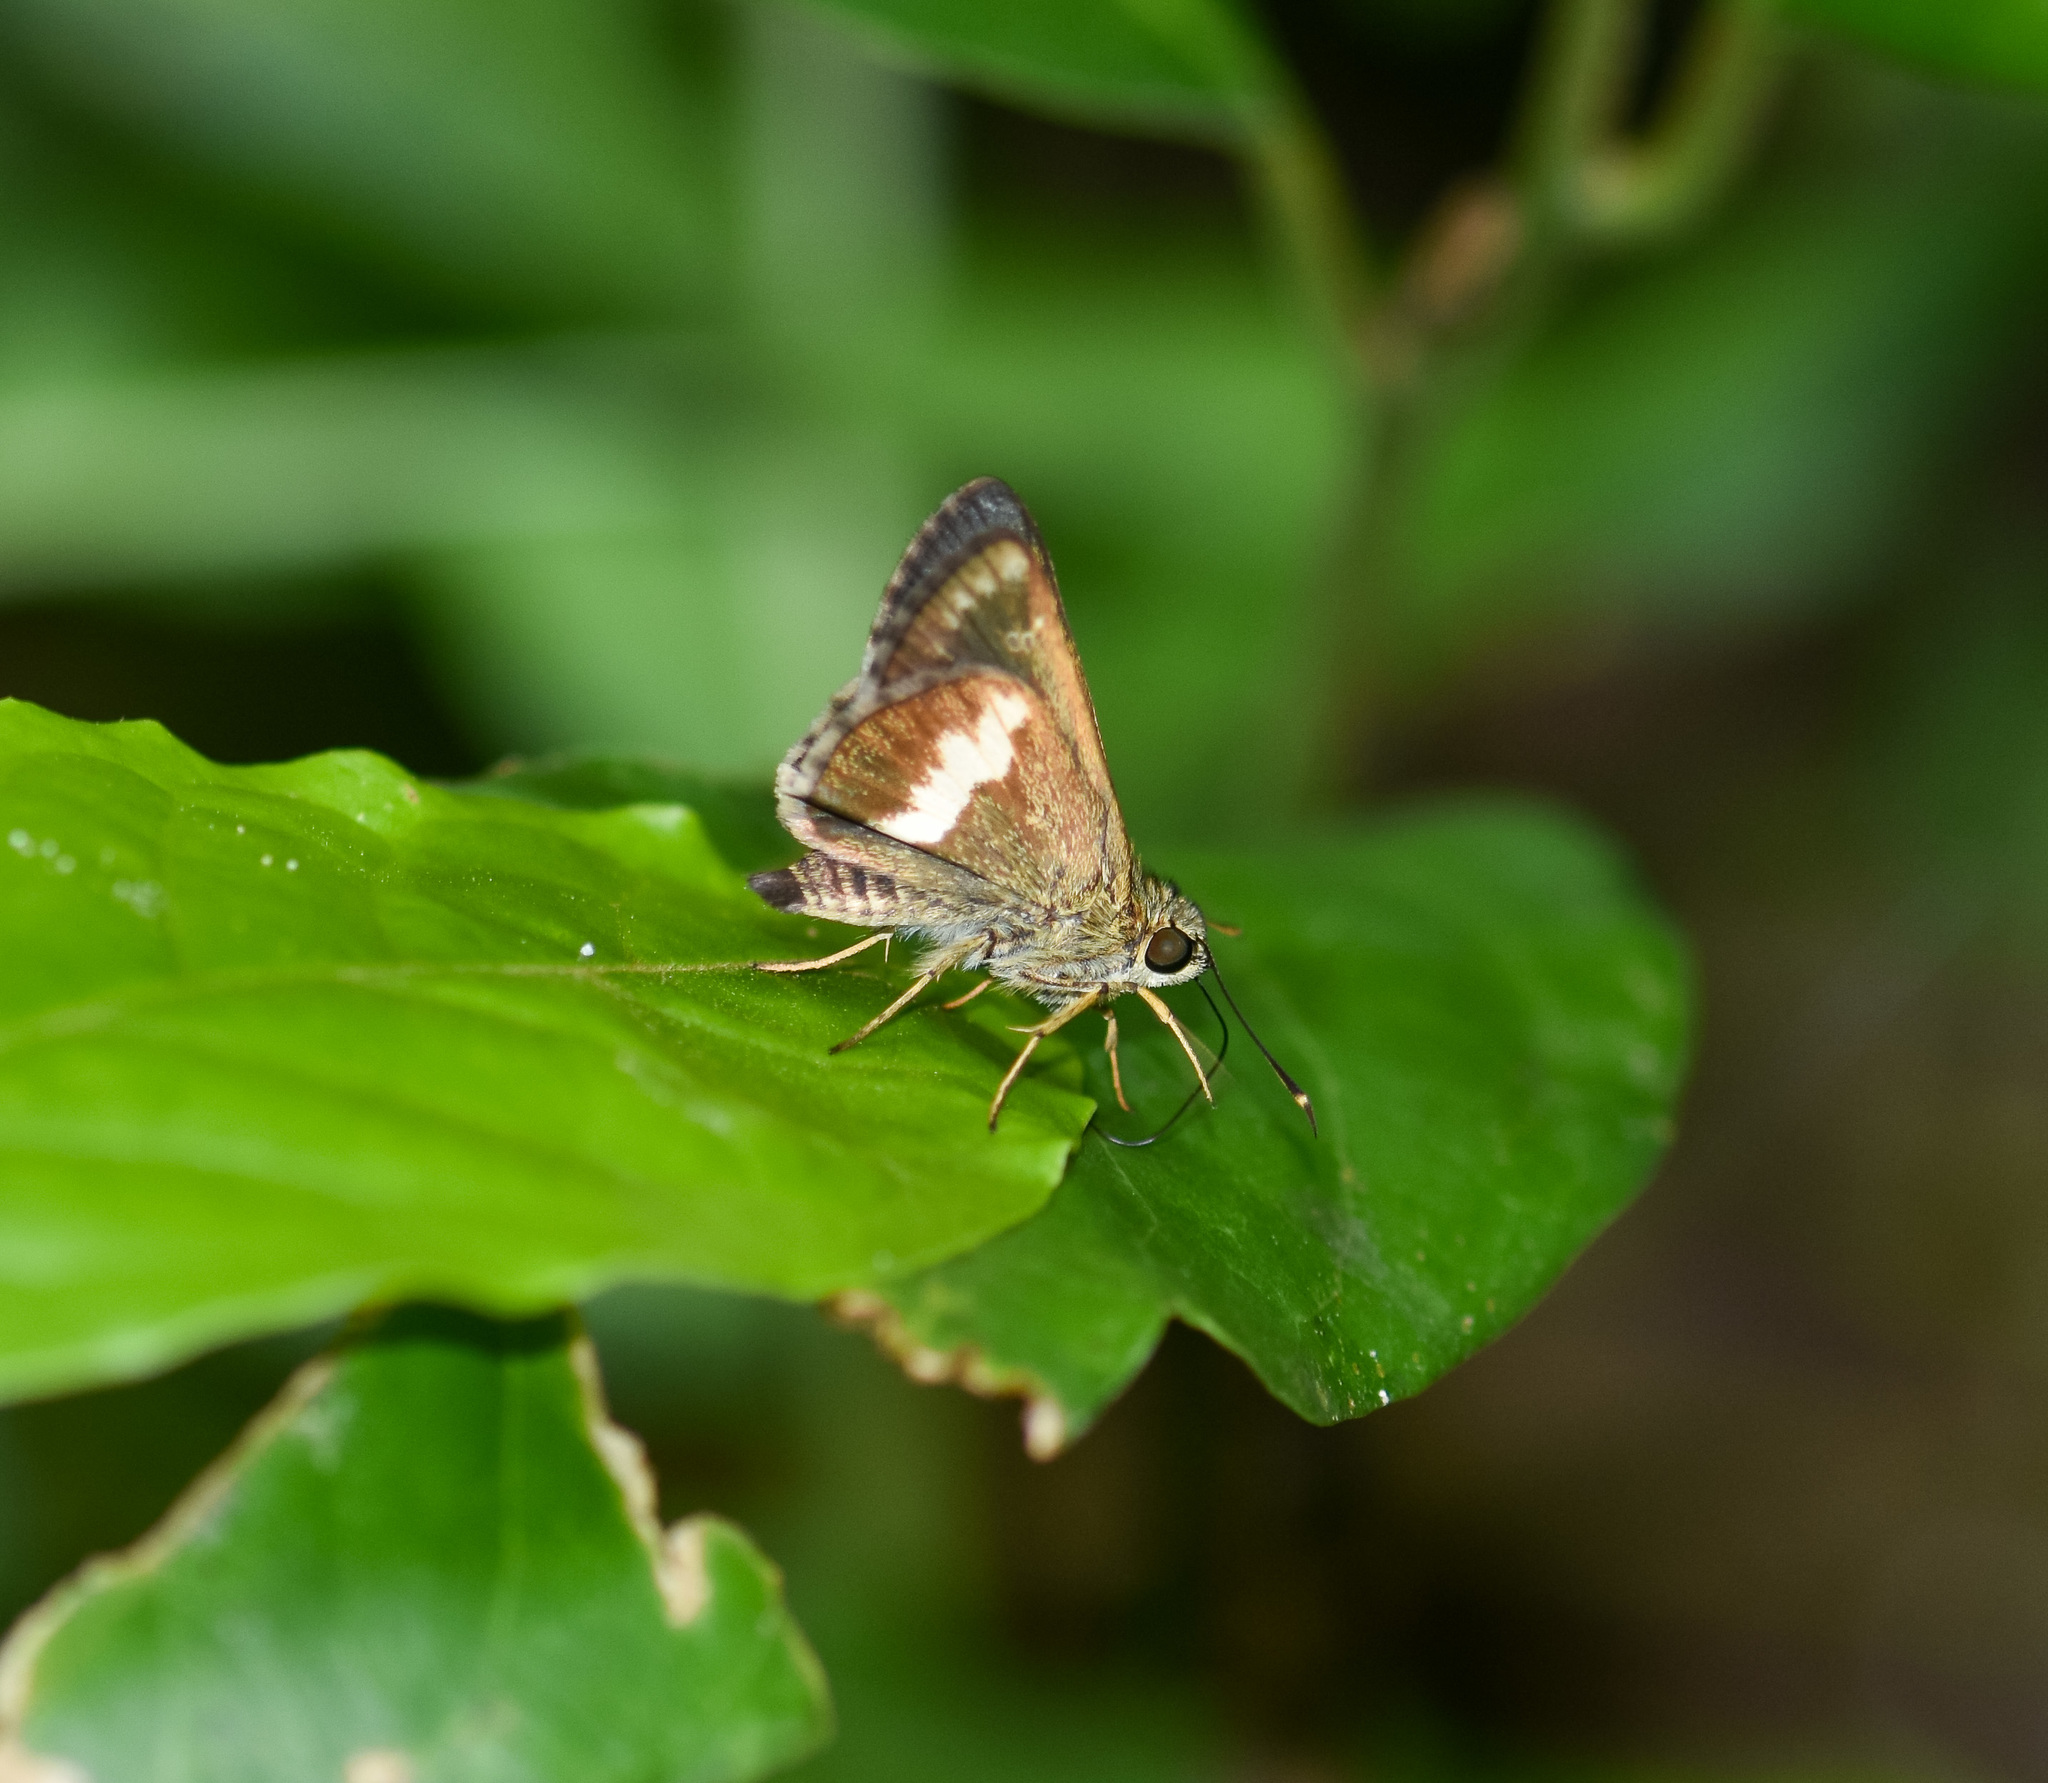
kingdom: Animalia
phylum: Arthropoda
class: Insecta
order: Lepidoptera
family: Hesperiidae
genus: Halpe
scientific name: Halpe zema
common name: Dark banded ace
